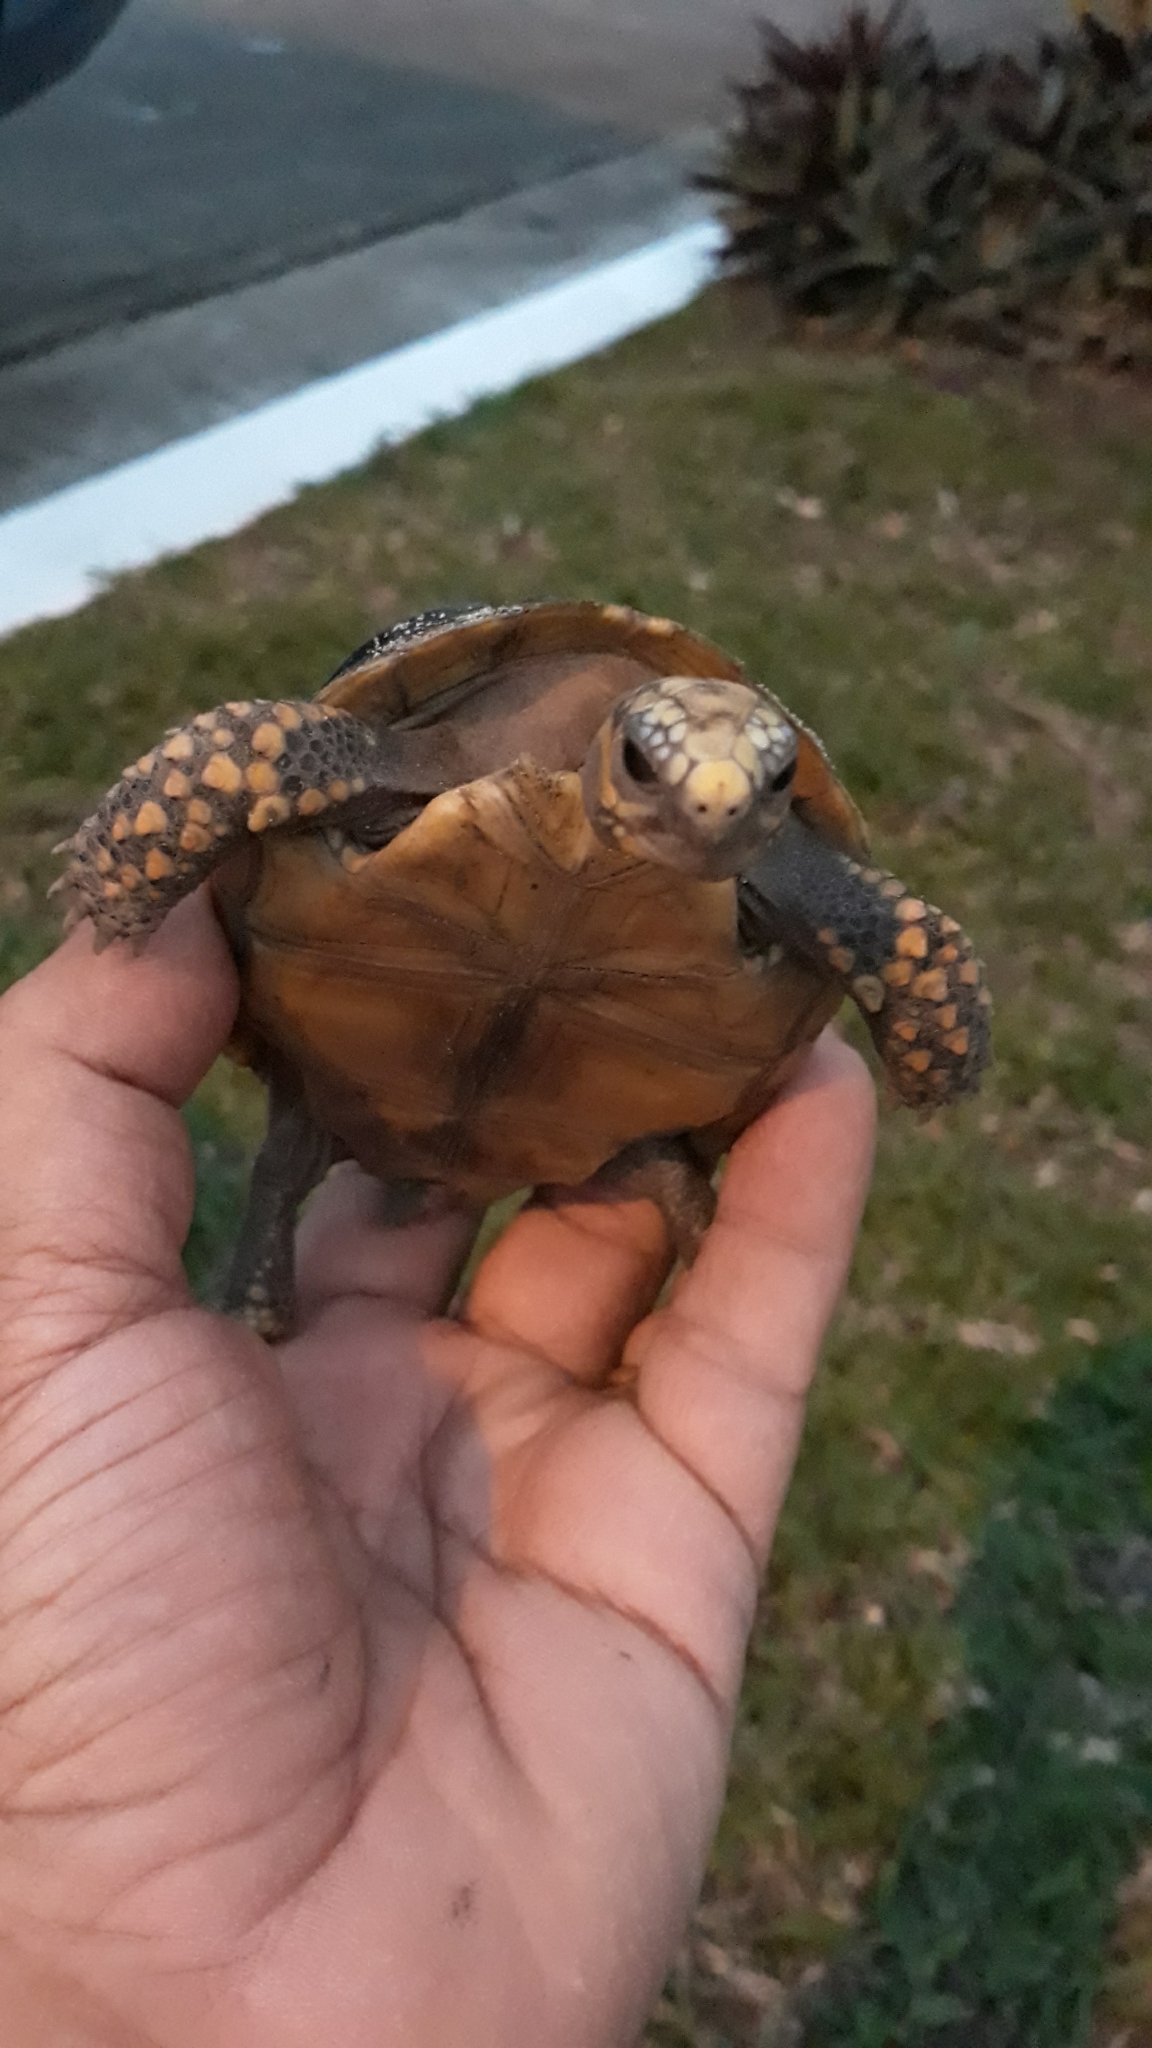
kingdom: Animalia
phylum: Chordata
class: Testudines
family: Testudinidae
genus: Chelonoidis
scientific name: Chelonoidis carbonarius
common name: Red-footed tortoise
